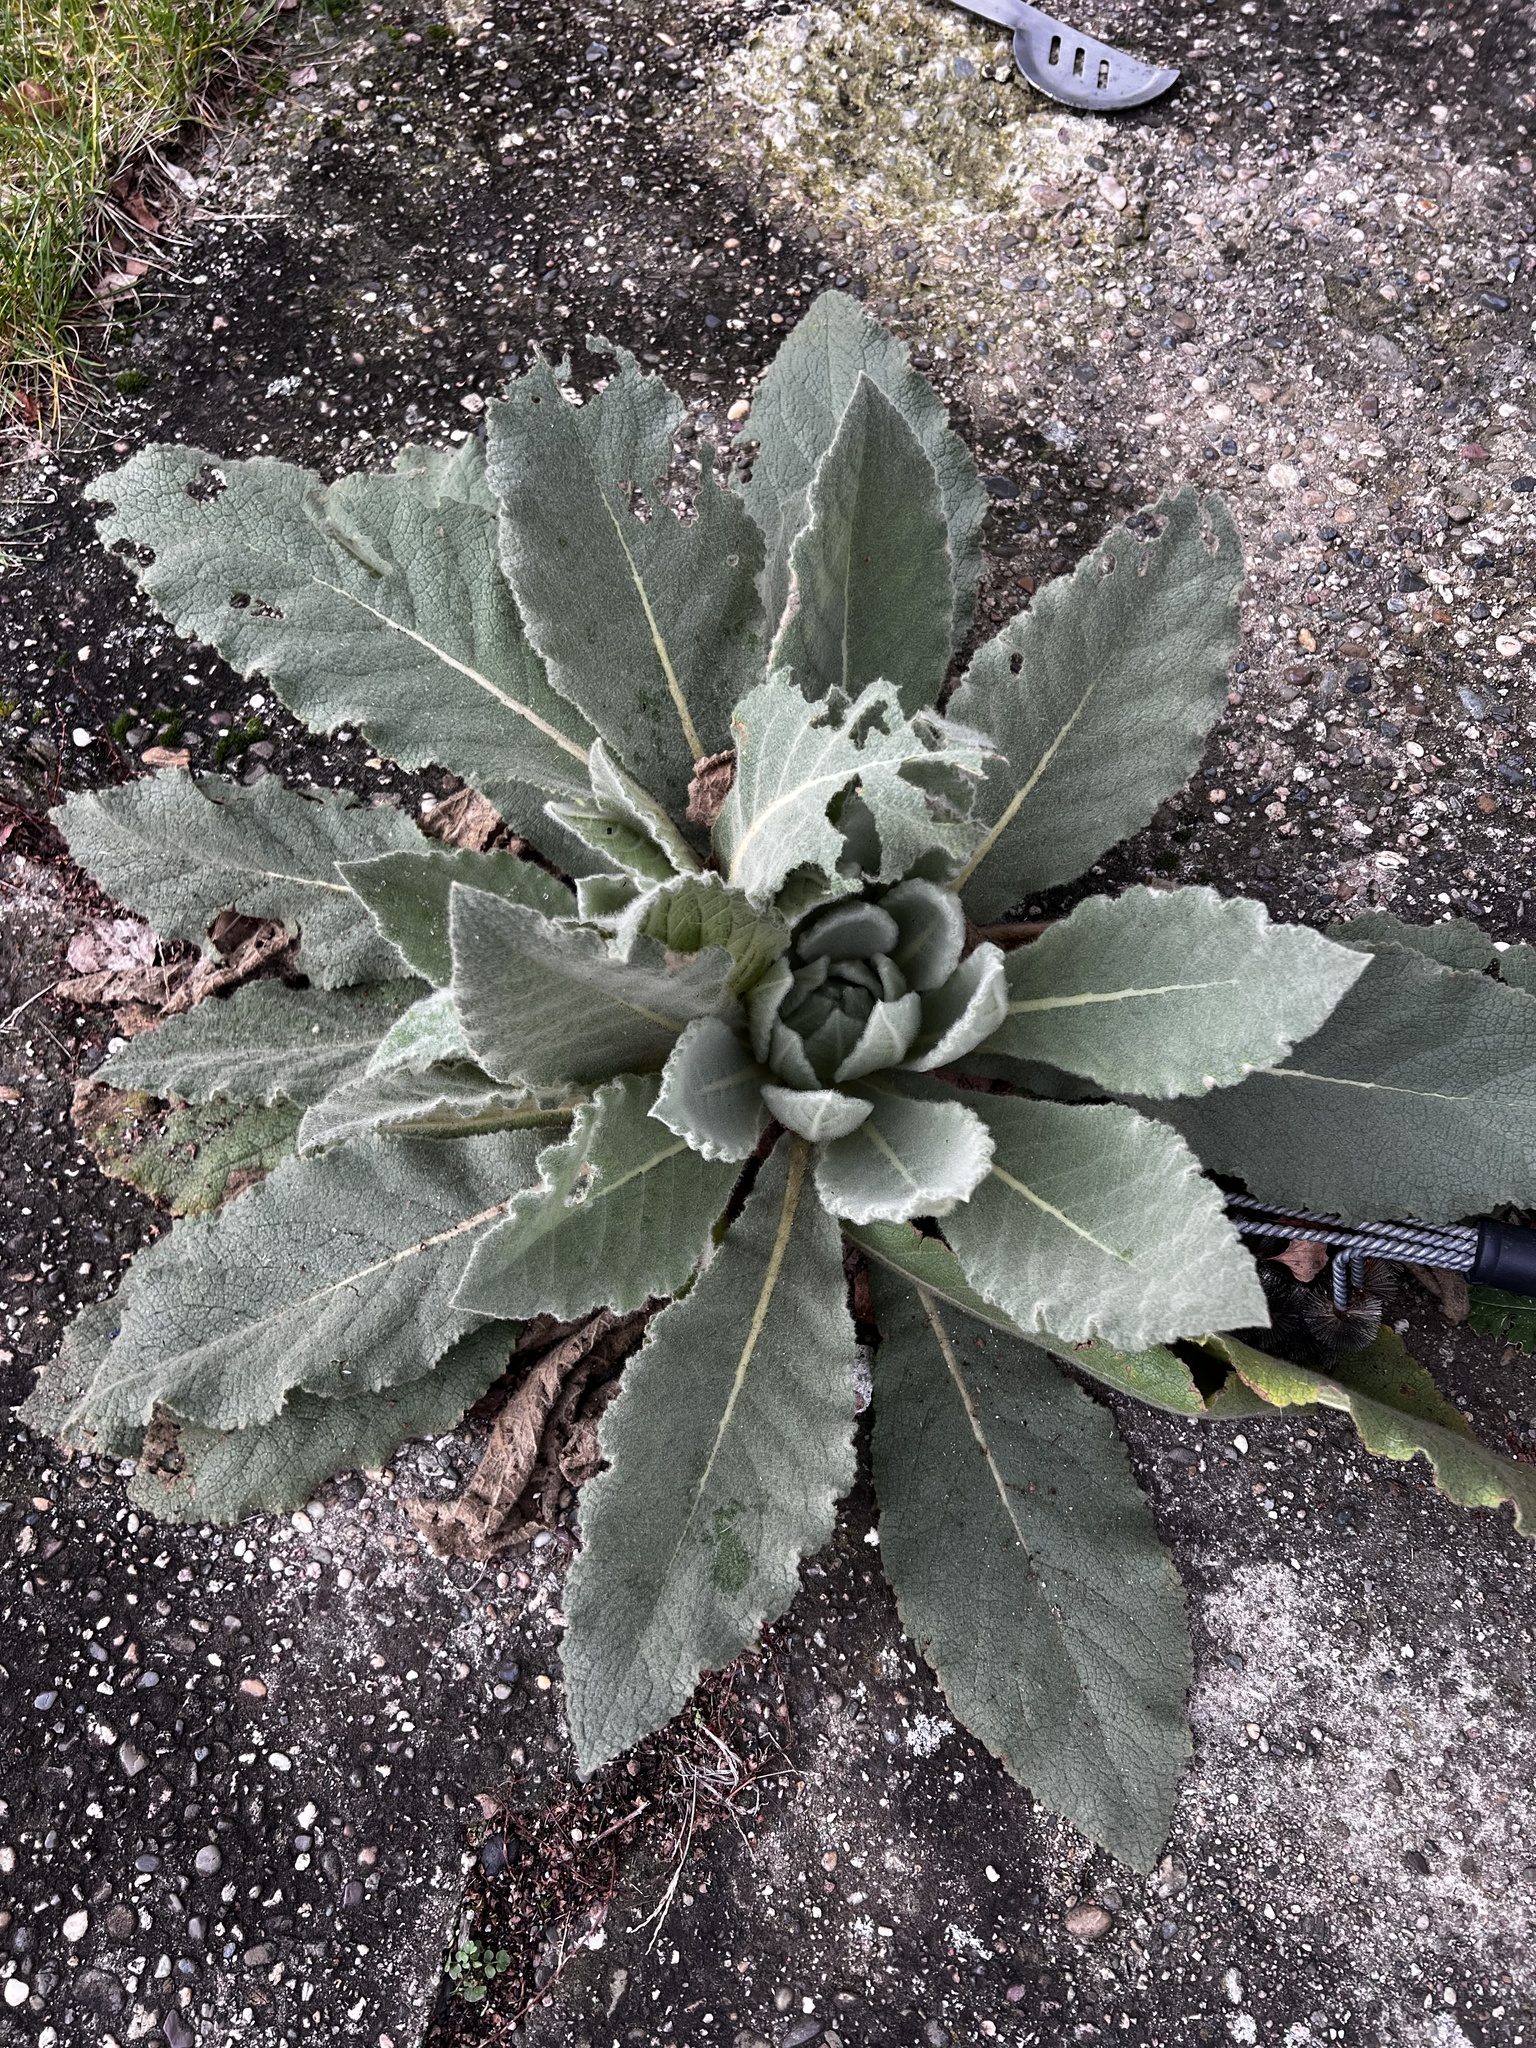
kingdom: Plantae
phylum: Tracheophyta
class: Magnoliopsida
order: Lamiales
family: Scrophulariaceae
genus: Verbascum
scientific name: Verbascum thapsus
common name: Common mullein
